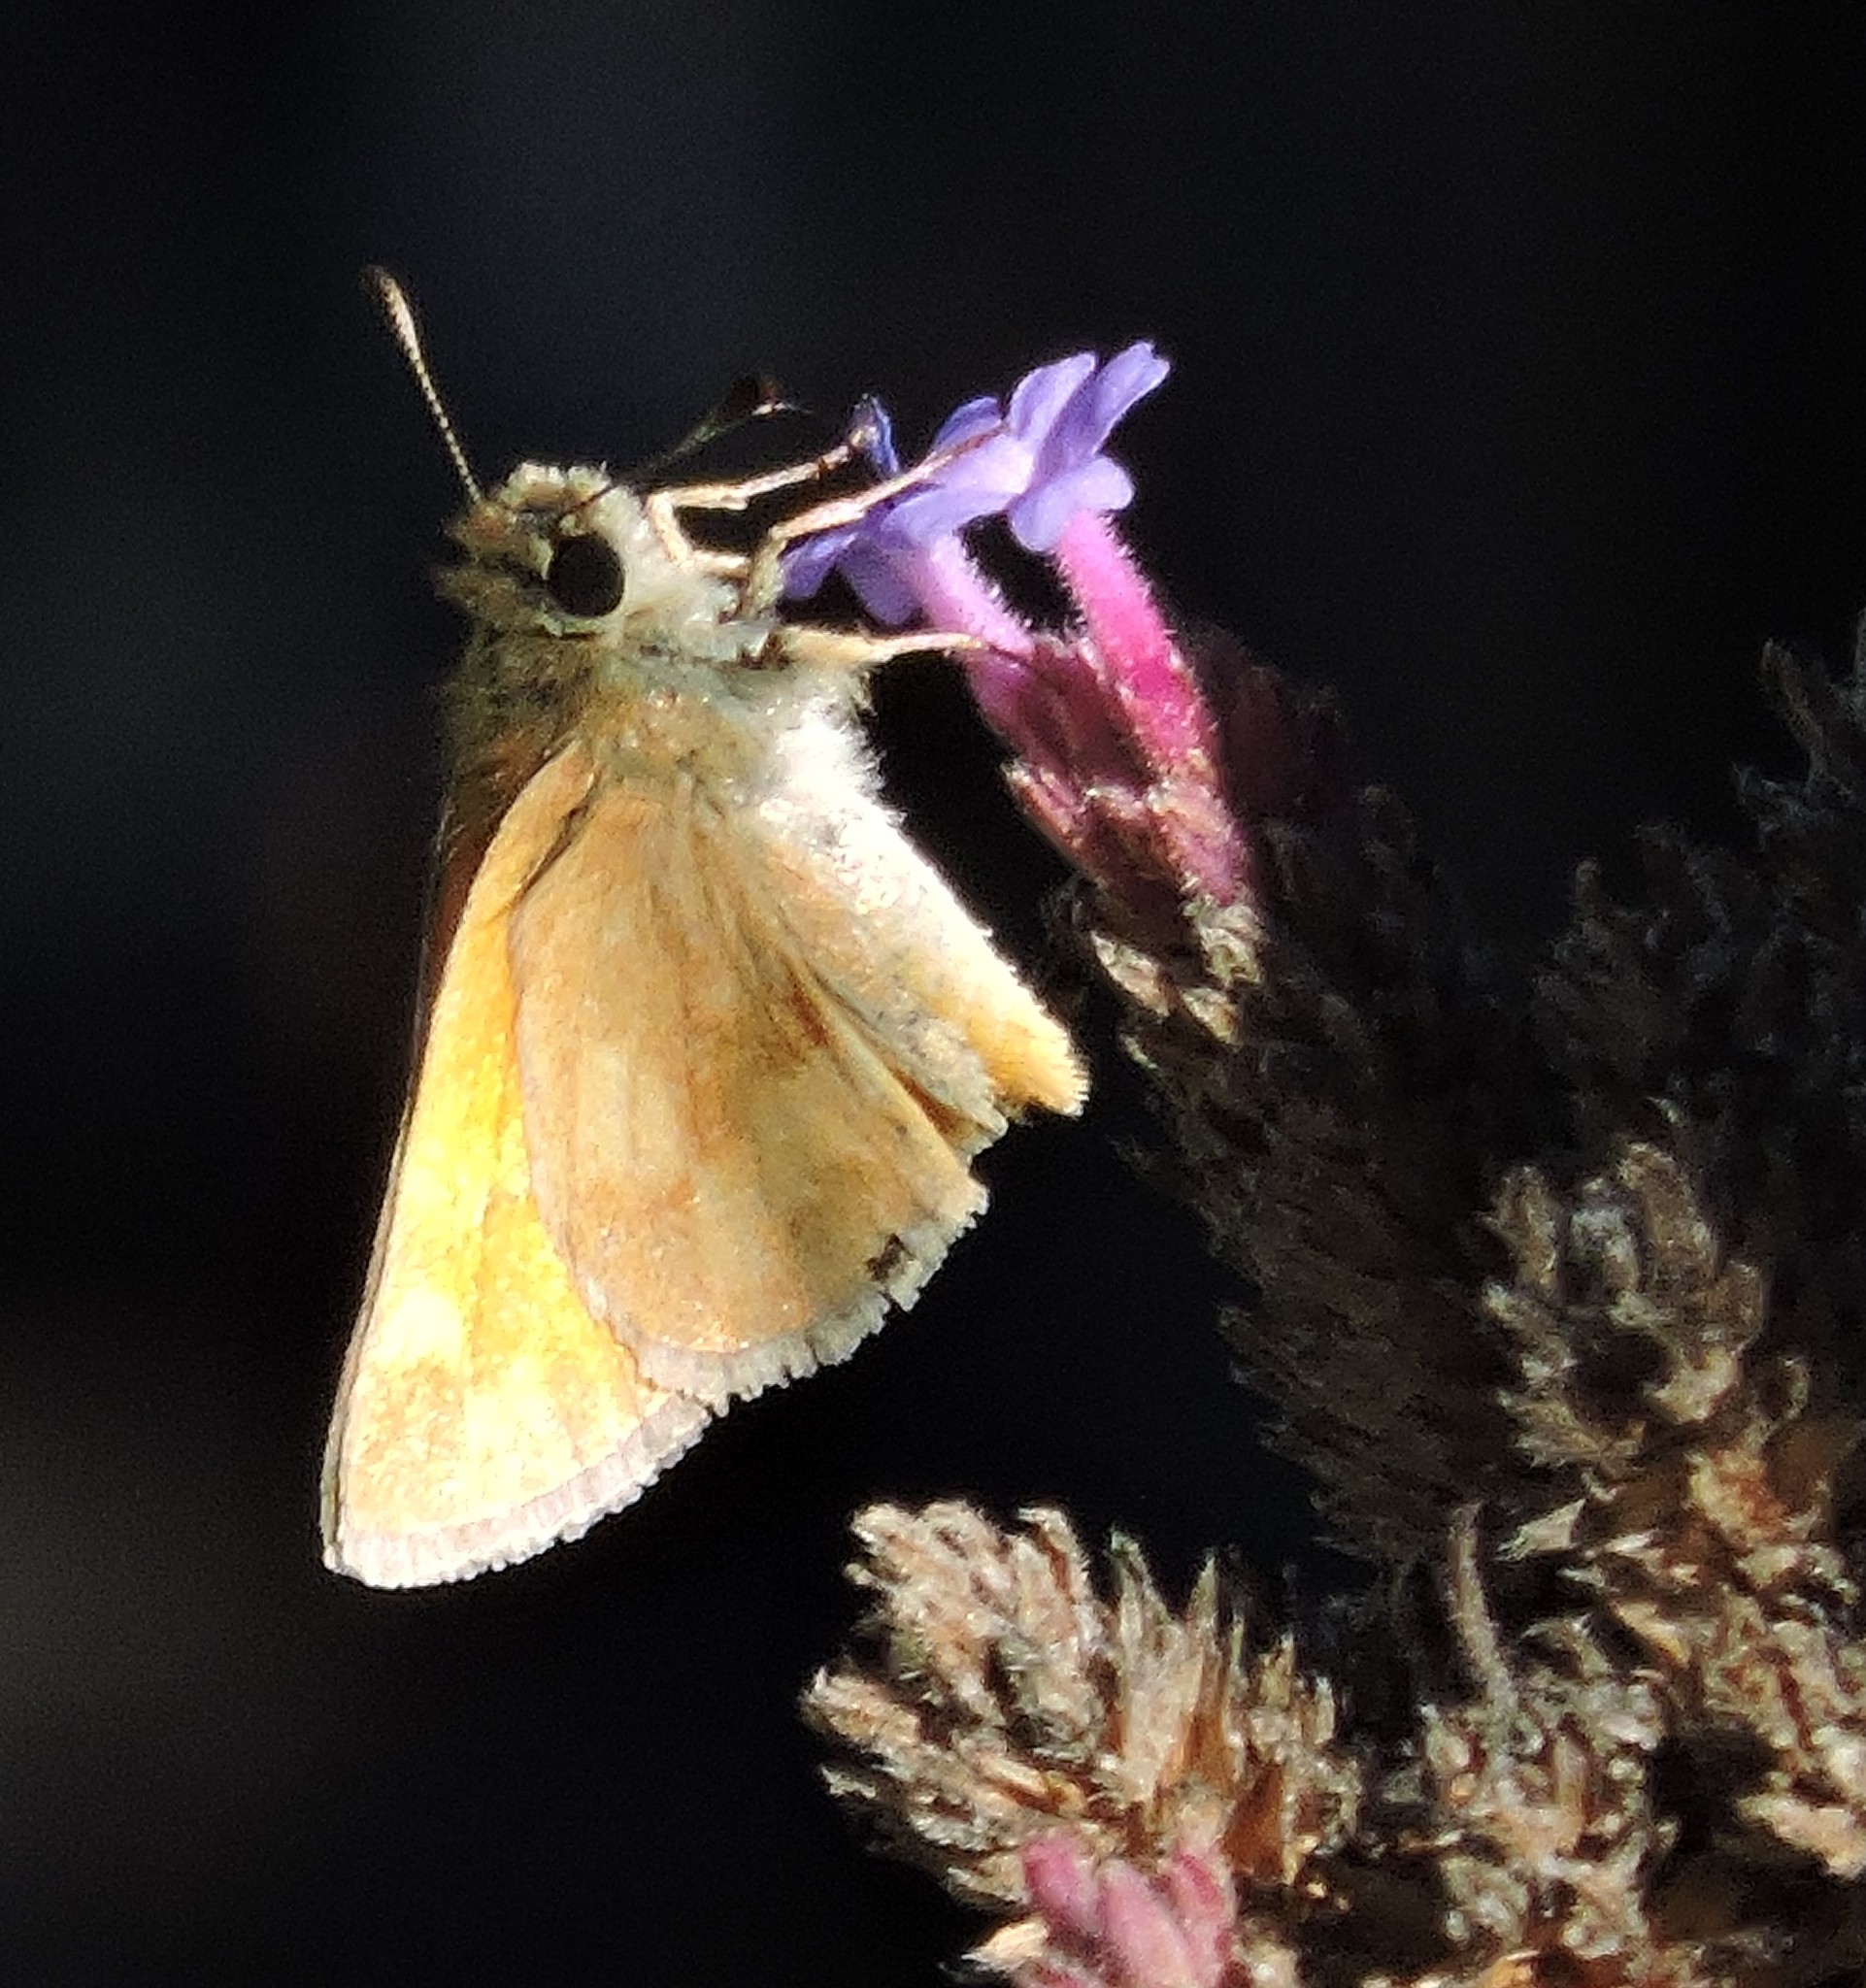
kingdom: Animalia
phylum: Arthropoda
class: Insecta
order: Lepidoptera
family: Hesperiidae
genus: Ochlodes
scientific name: Ochlodes sylvanoides
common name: Woodland skipper
